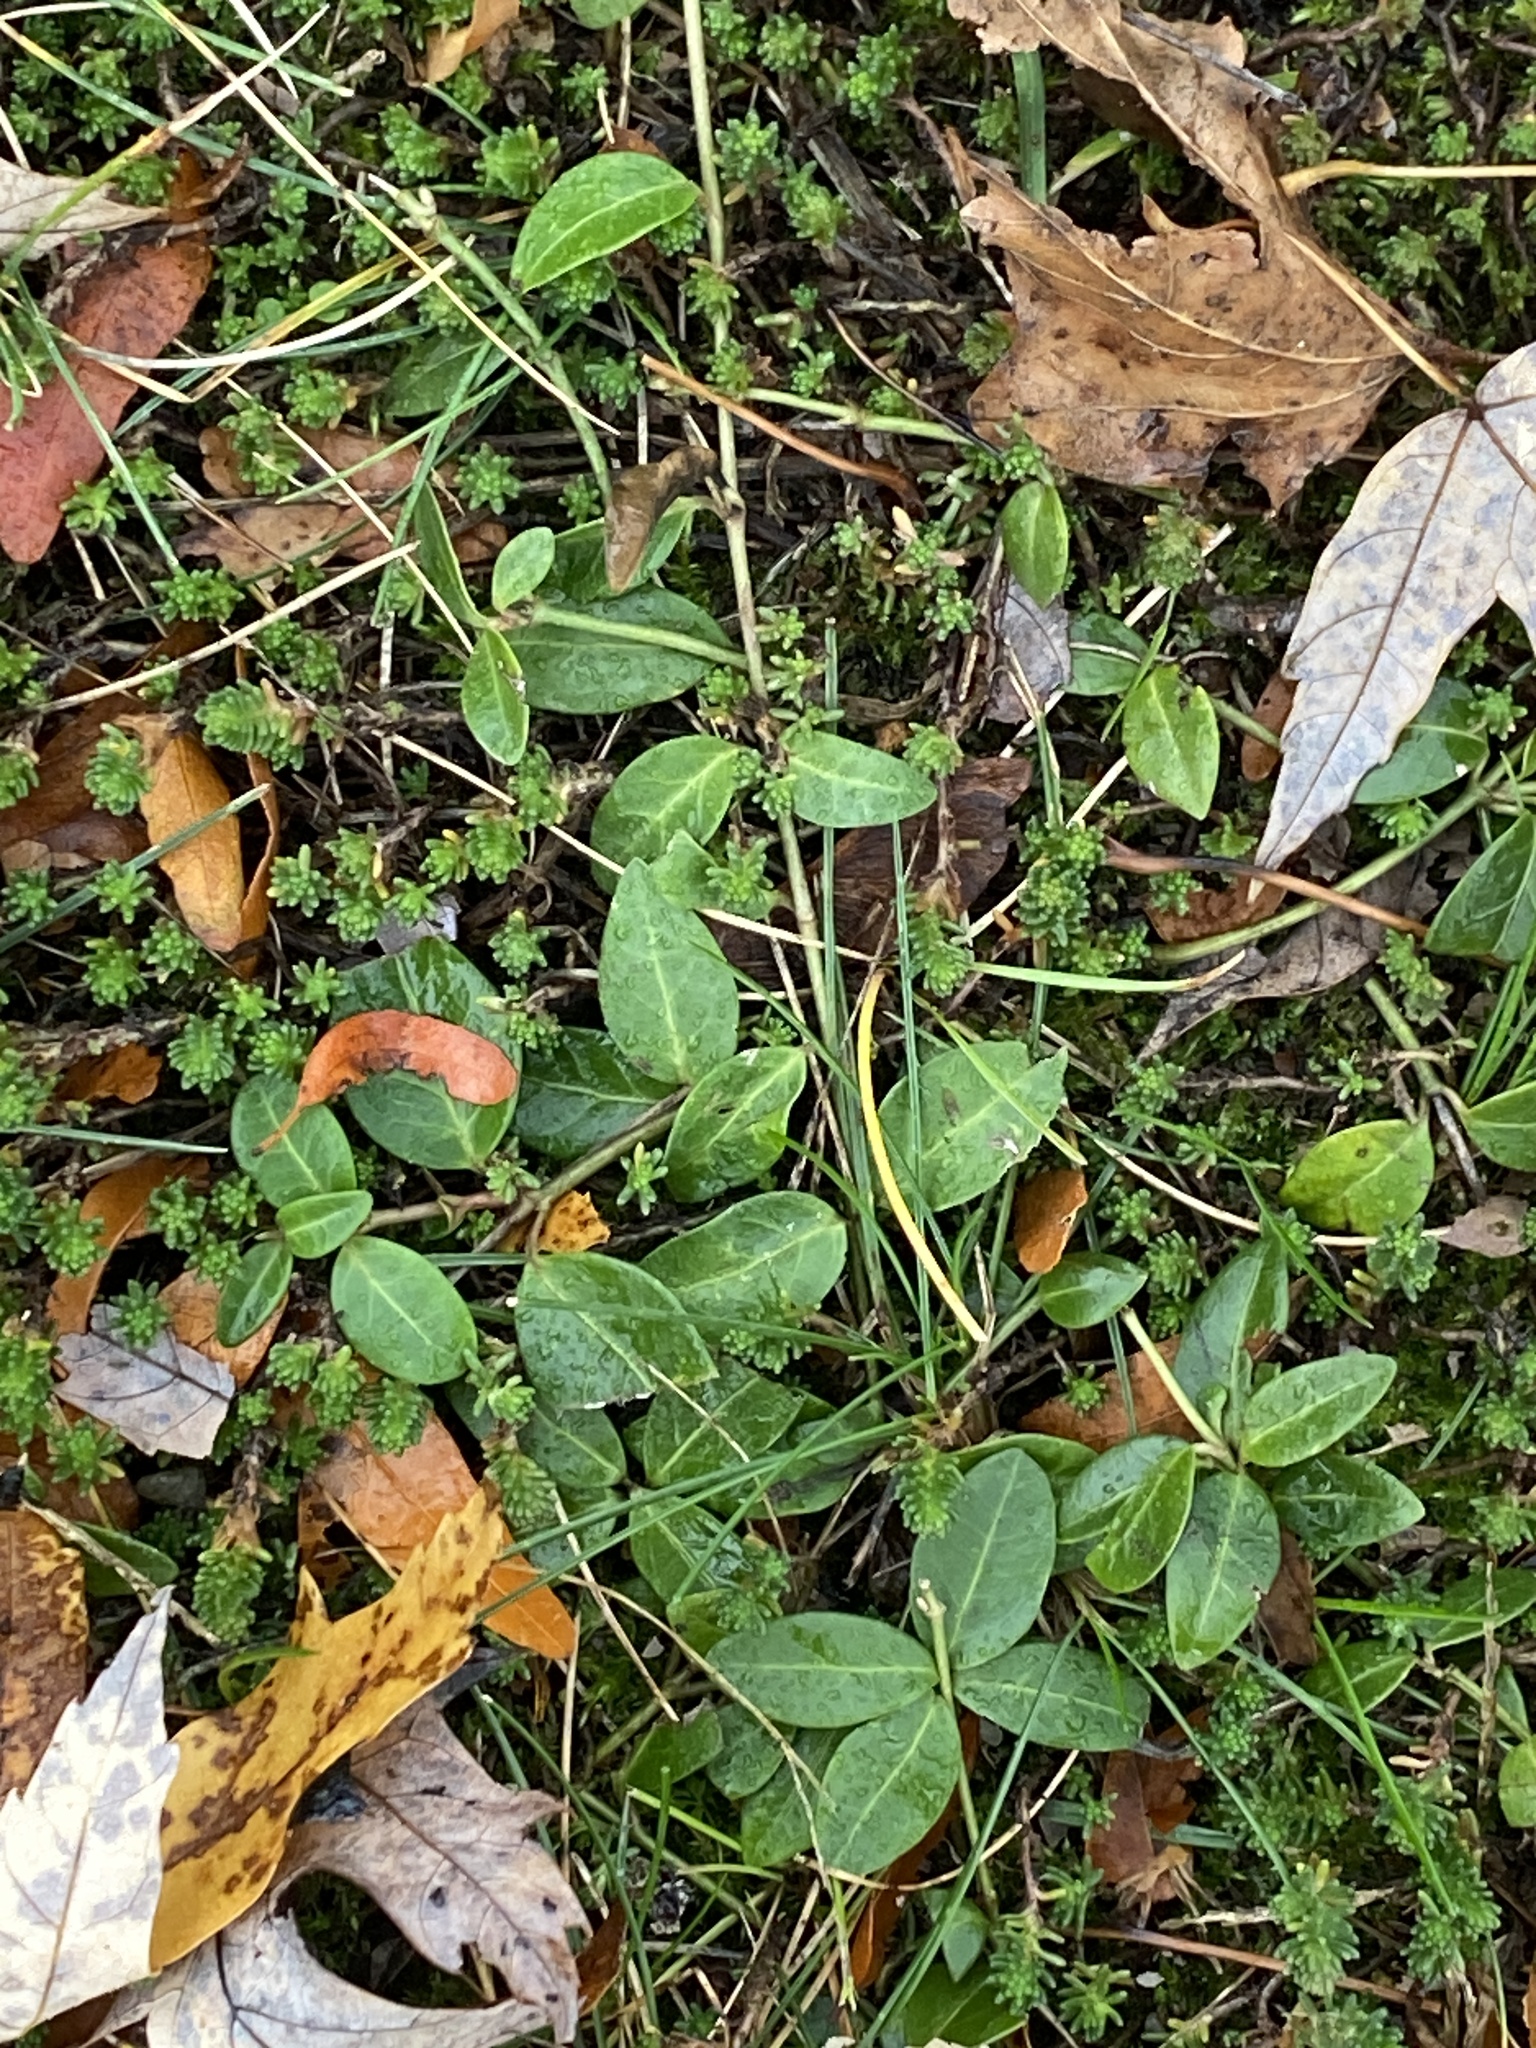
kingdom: Plantae
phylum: Tracheophyta
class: Magnoliopsida
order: Gentianales
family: Apocynaceae
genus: Vinca
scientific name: Vinca minor
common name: Lesser periwinkle
